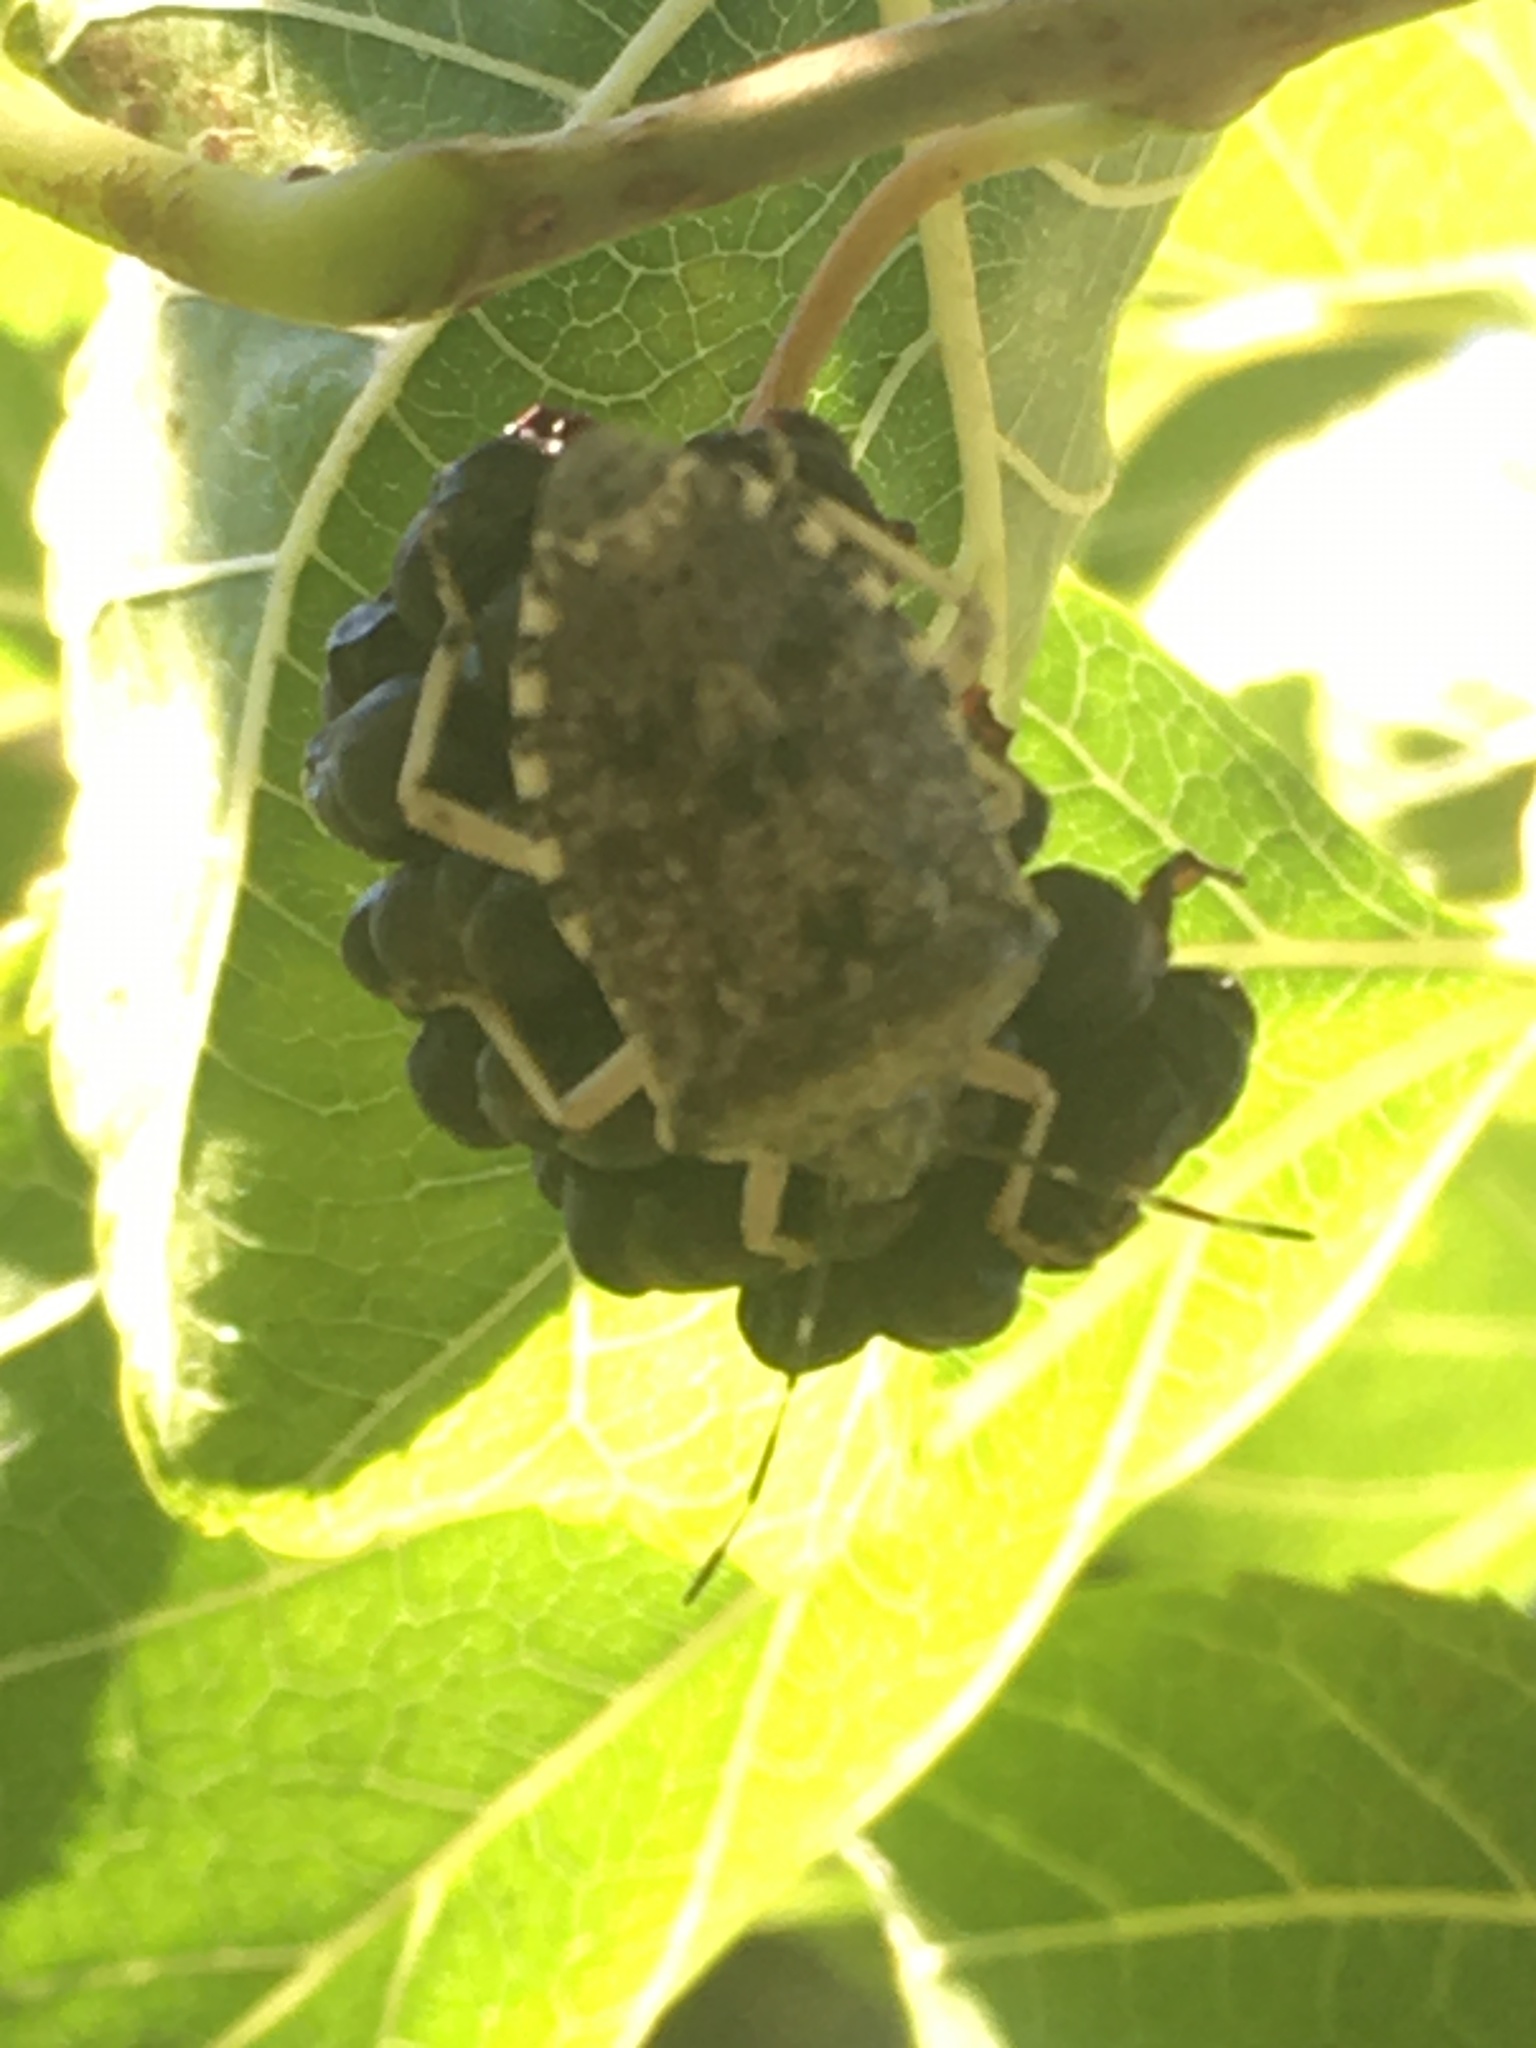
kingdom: Animalia
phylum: Arthropoda
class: Insecta
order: Hemiptera
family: Pentatomidae
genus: Rhaphigaster
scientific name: Rhaphigaster nebulosa
